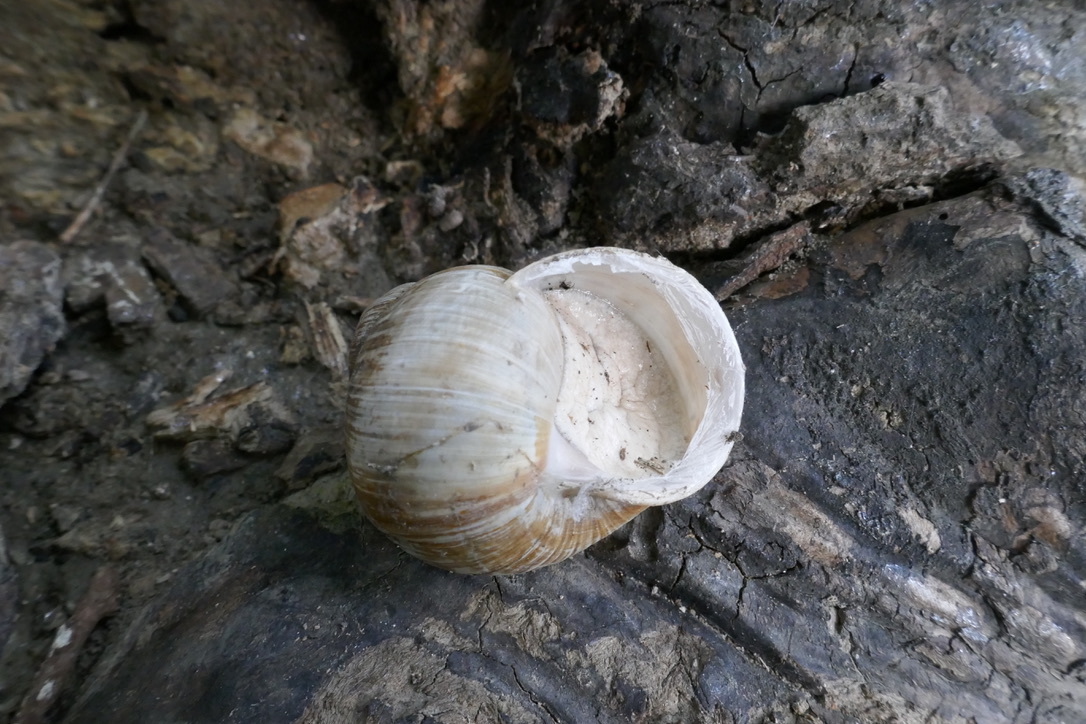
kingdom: Animalia
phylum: Mollusca
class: Gastropoda
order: Stylommatophora
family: Helicidae
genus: Helix
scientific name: Helix pomatia
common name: Roman snail
